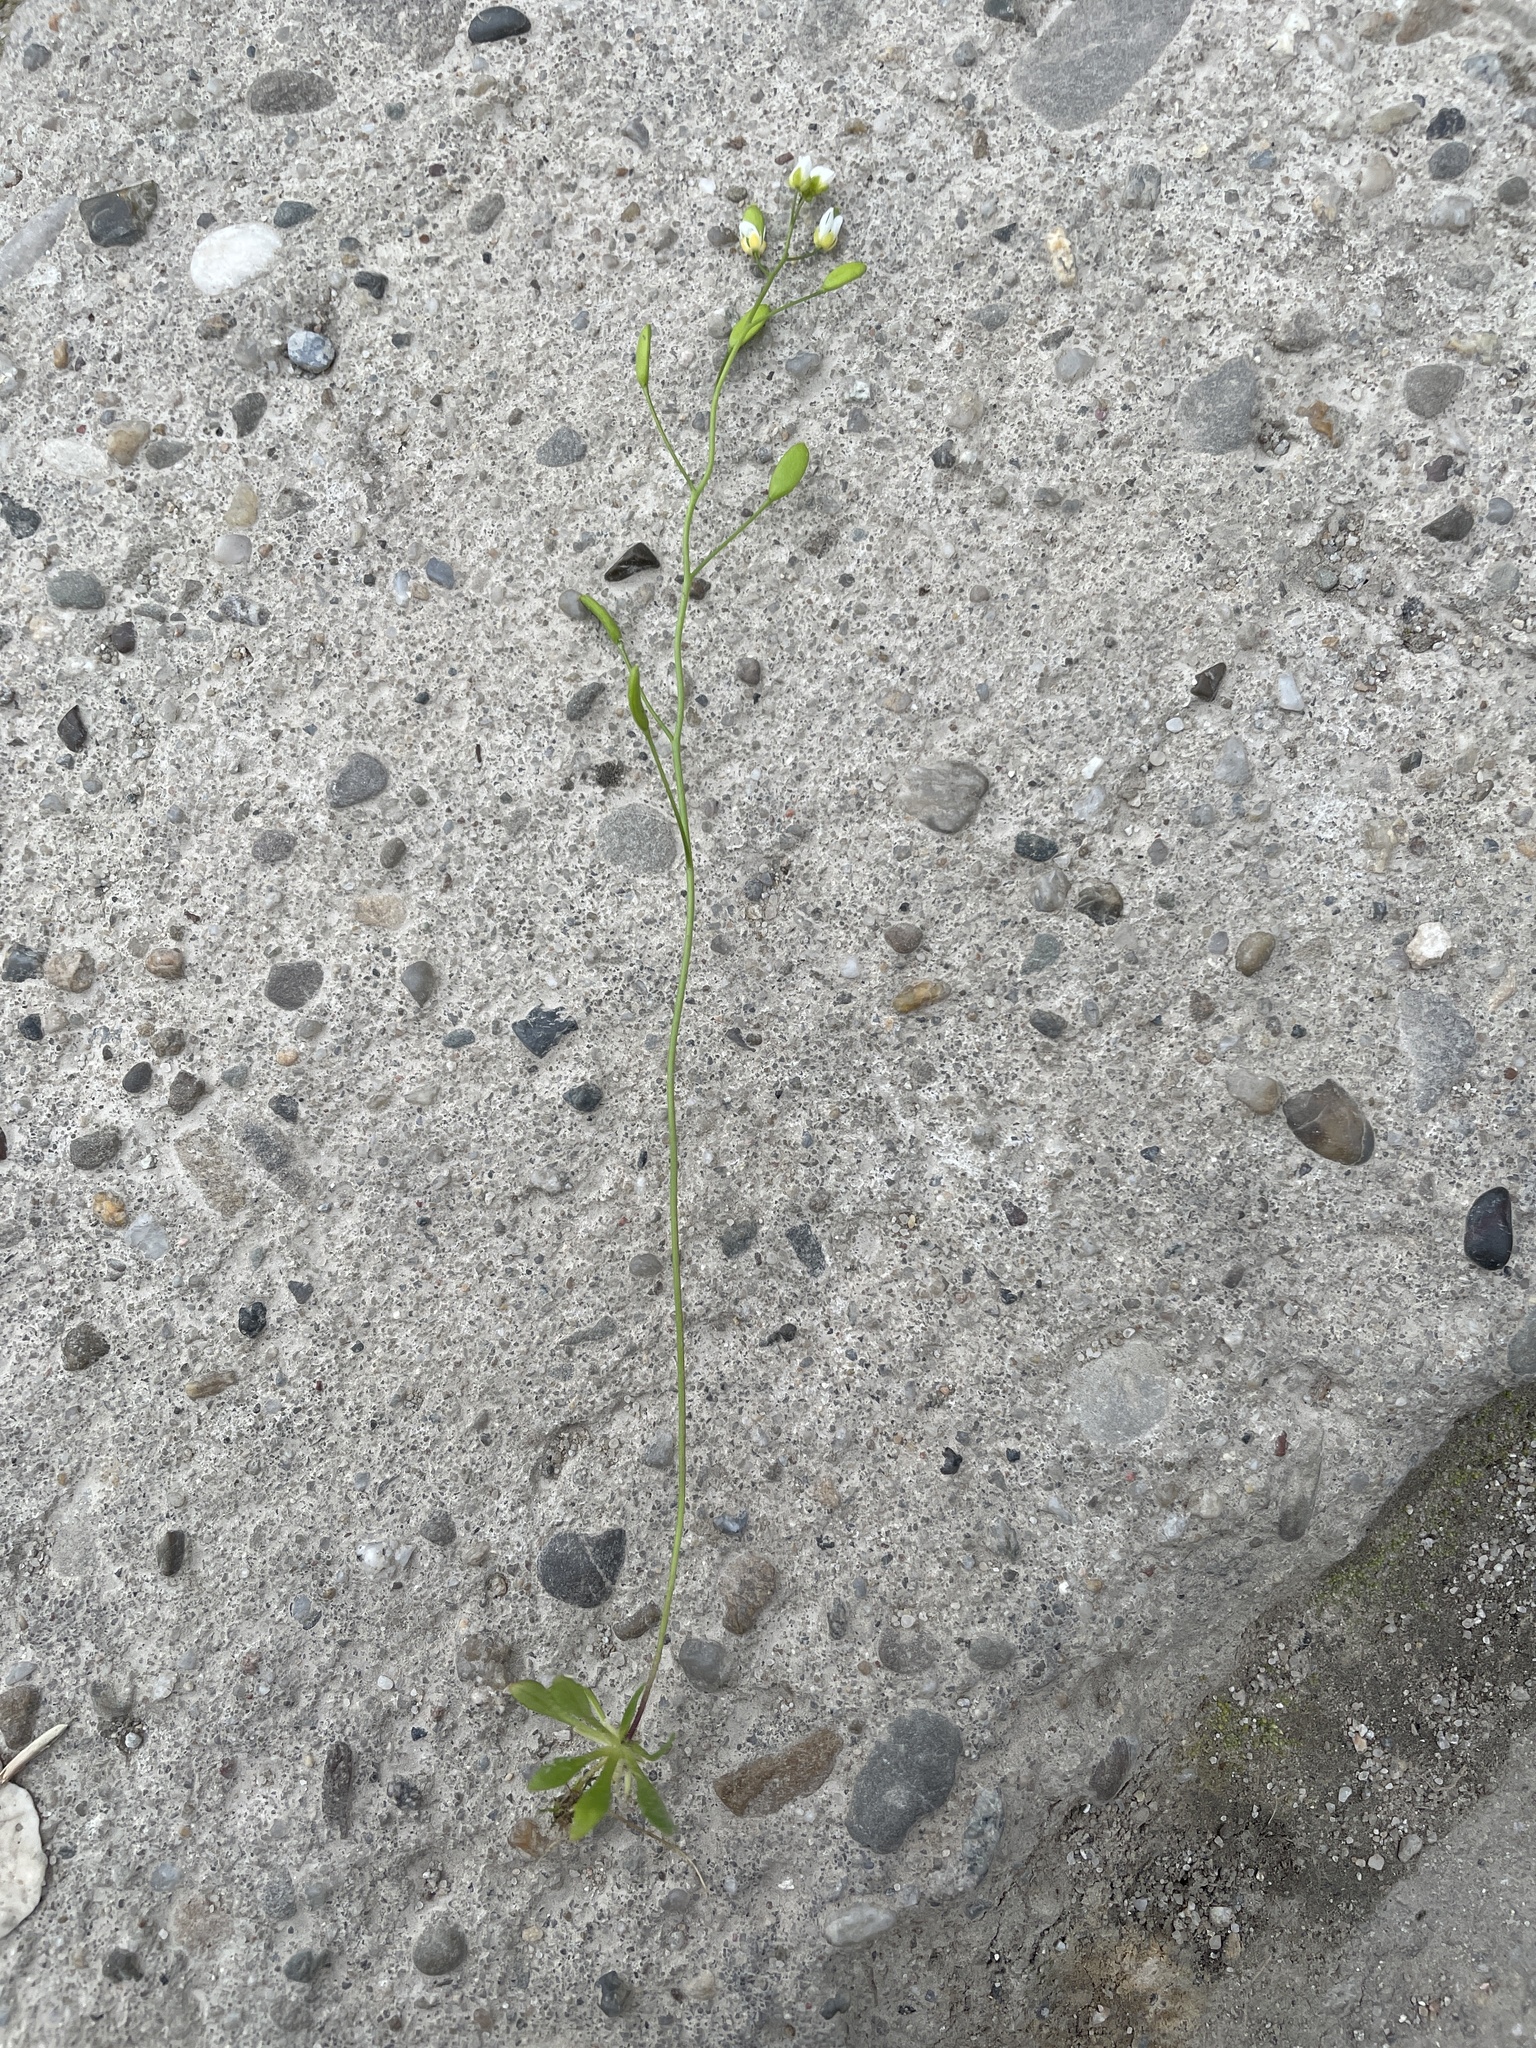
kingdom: Plantae
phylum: Tracheophyta
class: Magnoliopsida
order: Brassicales
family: Brassicaceae
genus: Draba
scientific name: Draba verna
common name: Spring draba
